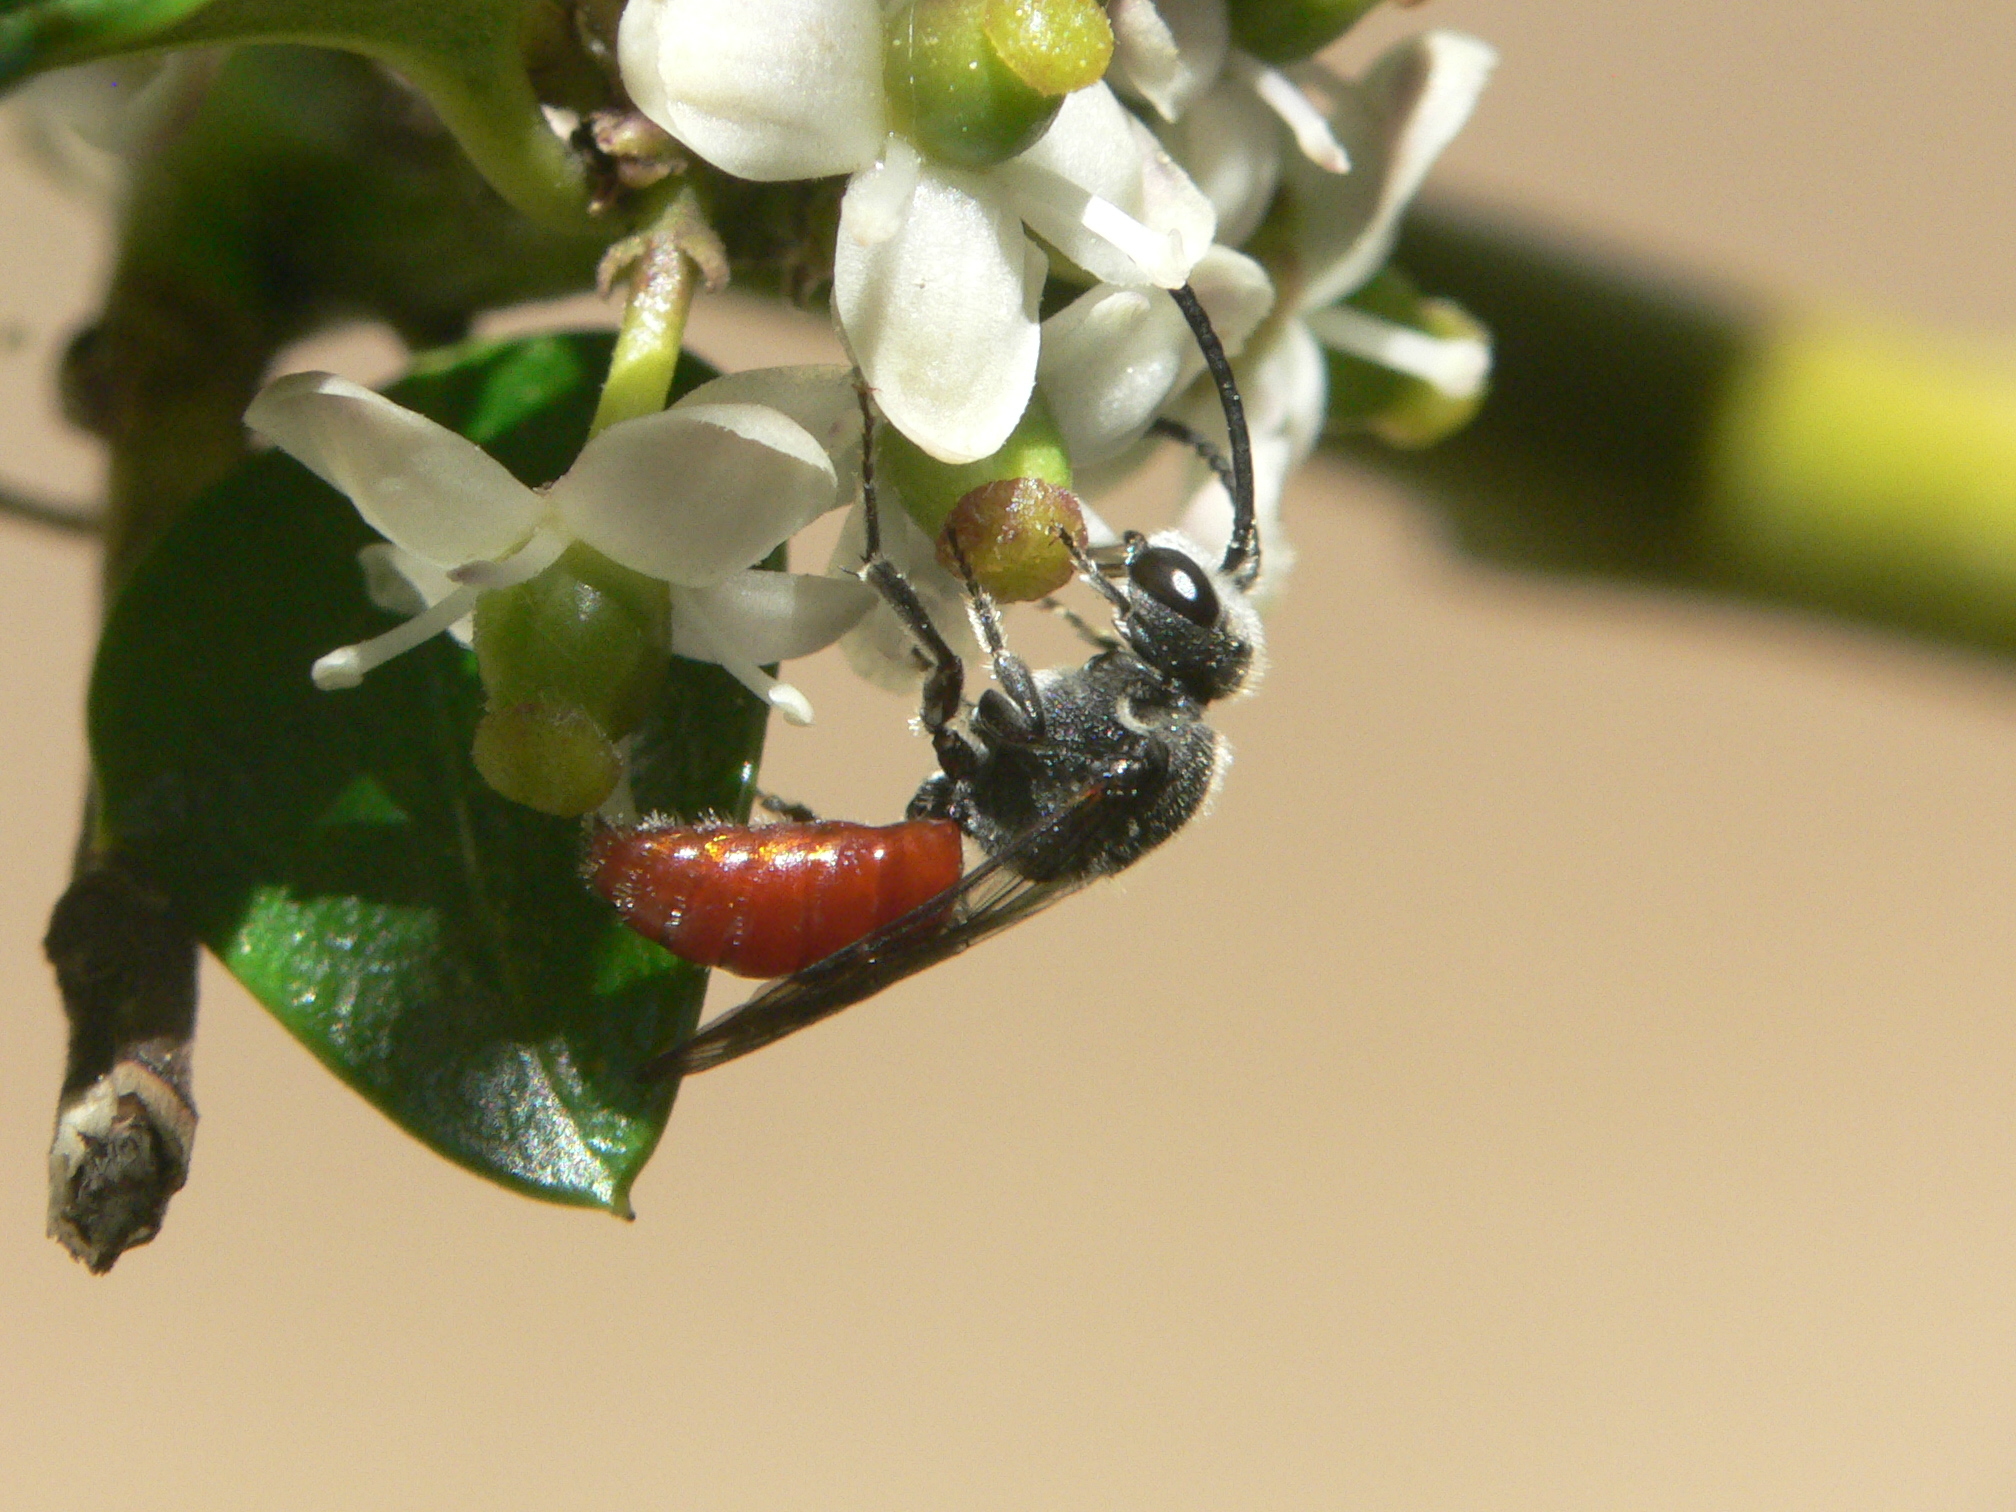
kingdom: Animalia
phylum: Arthropoda
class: Insecta
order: Hymenoptera
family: Halictidae
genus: Sphecodes
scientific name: Sphecodes ranunculi
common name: Buttercup cuckoo sweat bee
